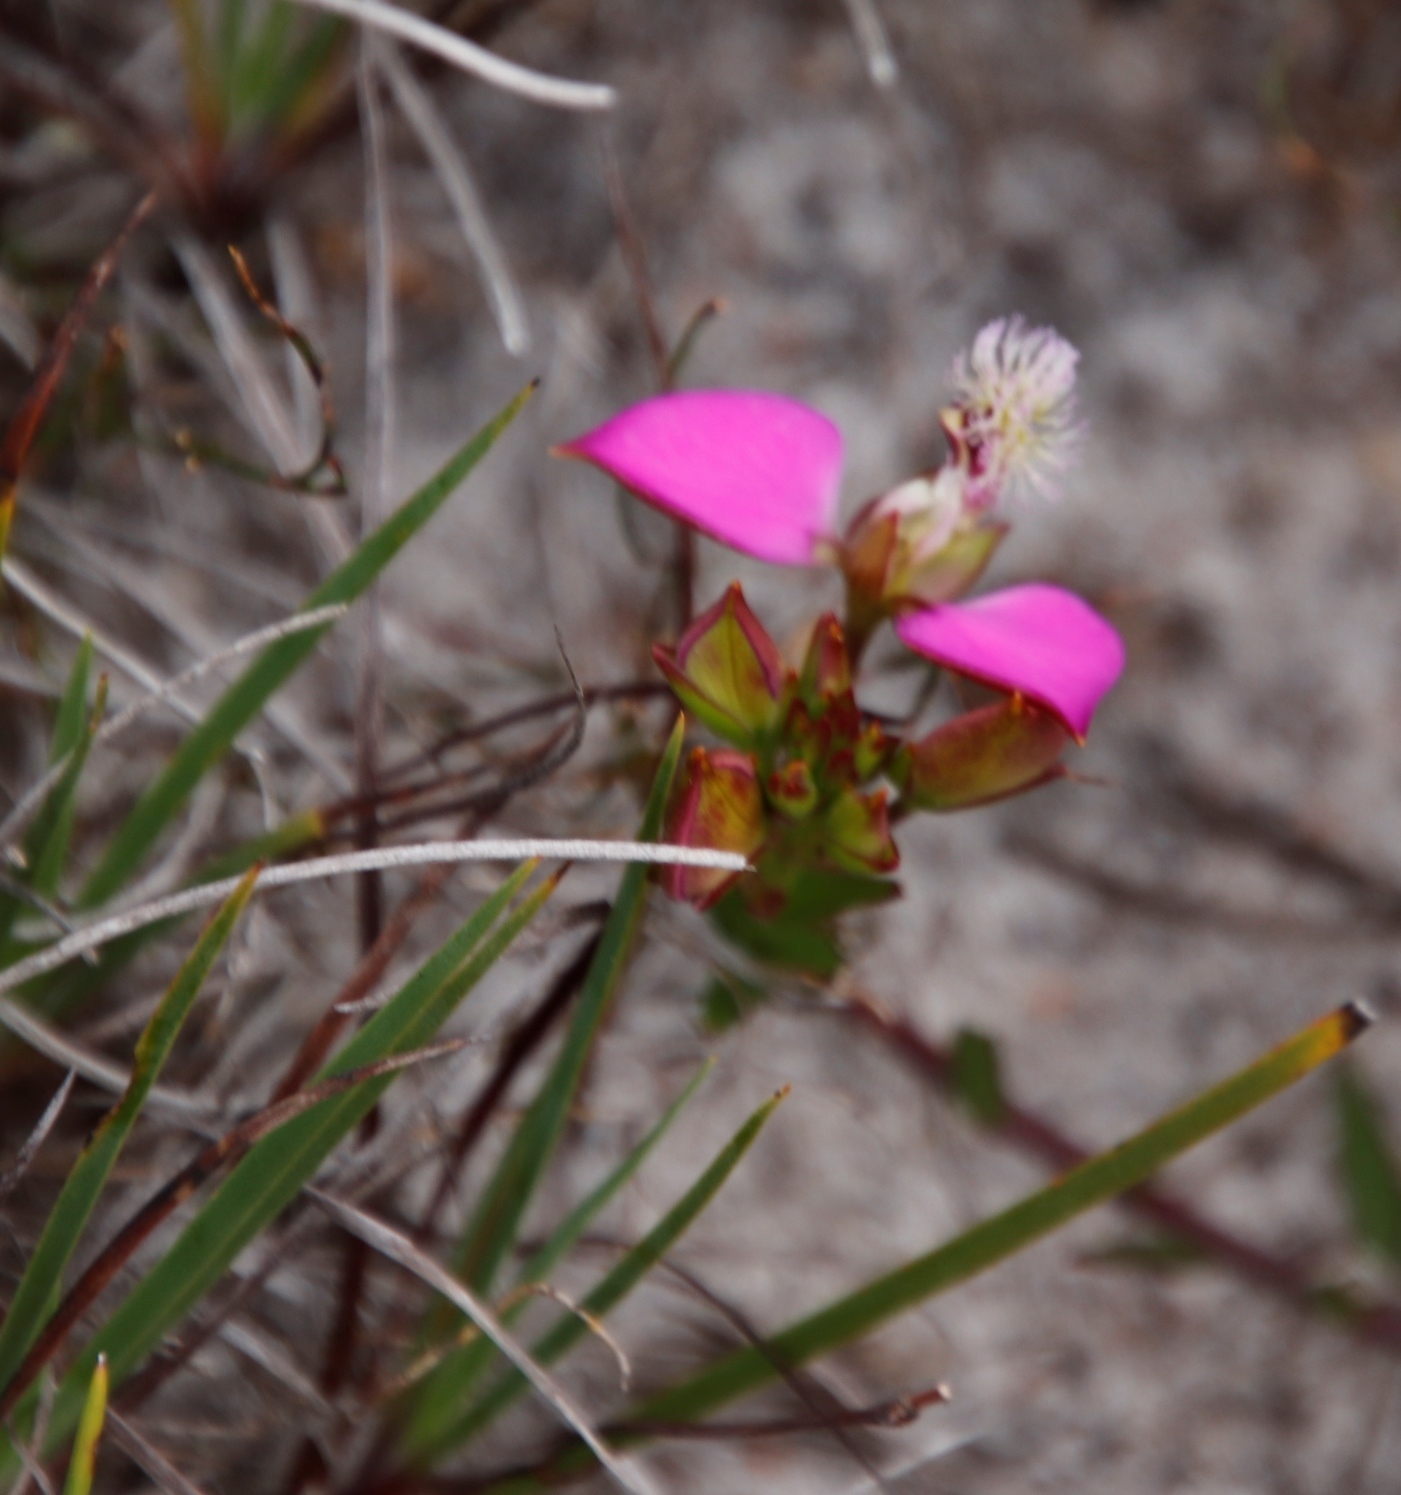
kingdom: Plantae
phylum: Tracheophyta
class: Magnoliopsida
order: Fabales
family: Polygalaceae
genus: Polygala
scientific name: Polygala bracteolata
